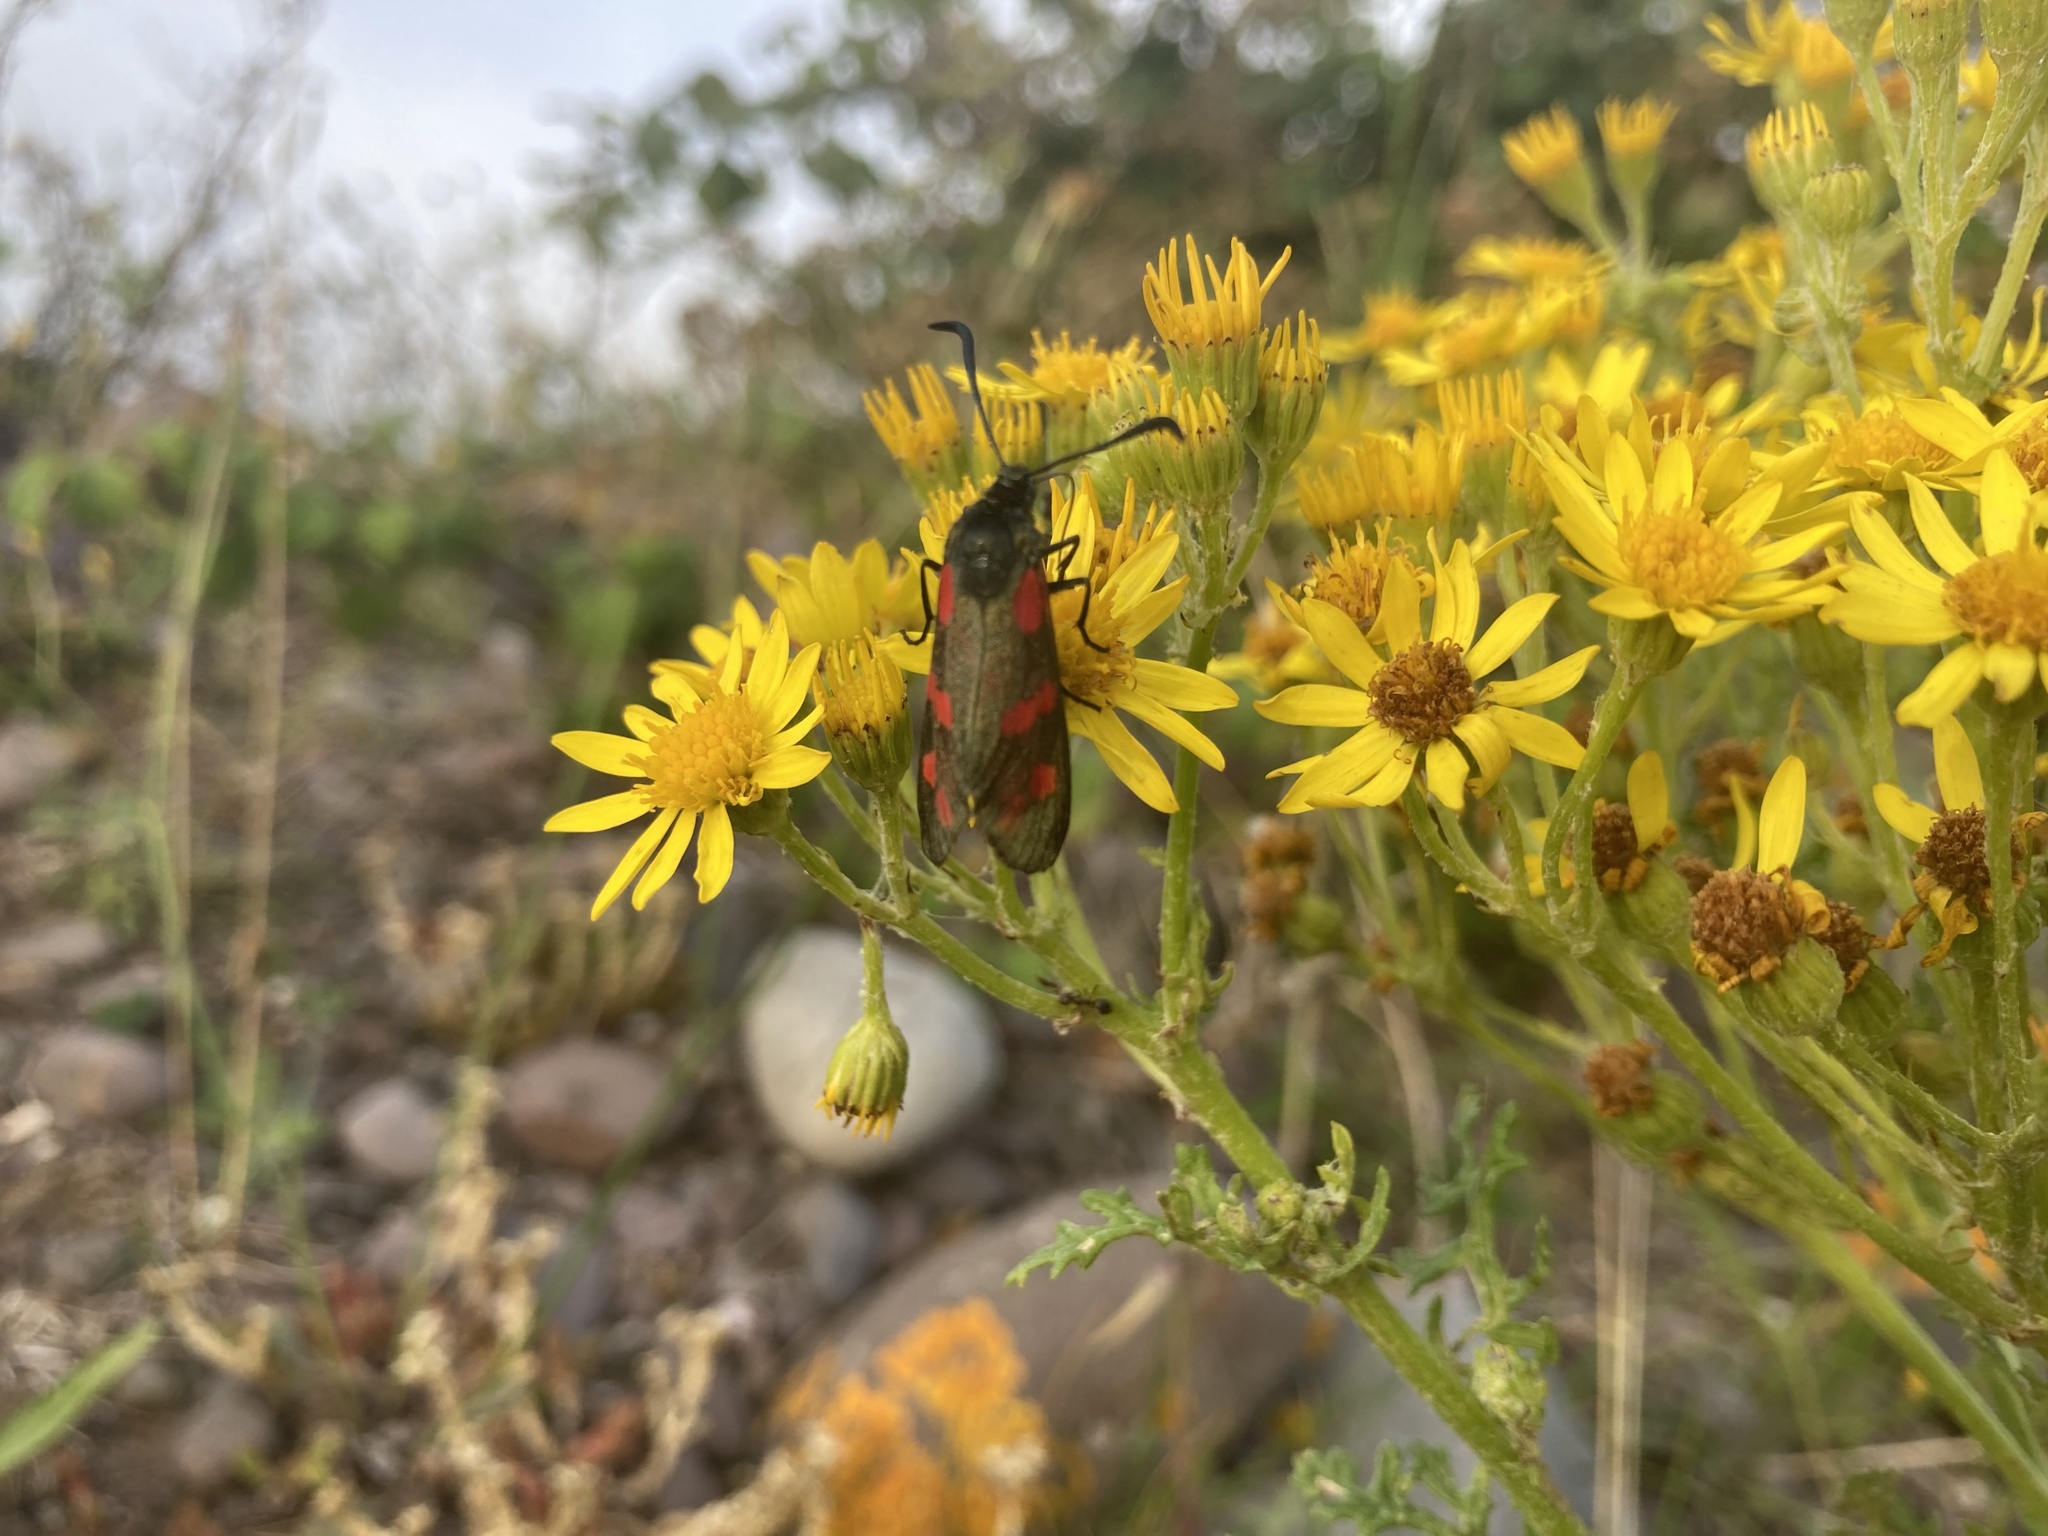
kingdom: Animalia
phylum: Arthropoda
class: Insecta
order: Lepidoptera
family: Zygaenidae
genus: Zygaena
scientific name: Zygaena filipendulae
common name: Six-spot burnet
